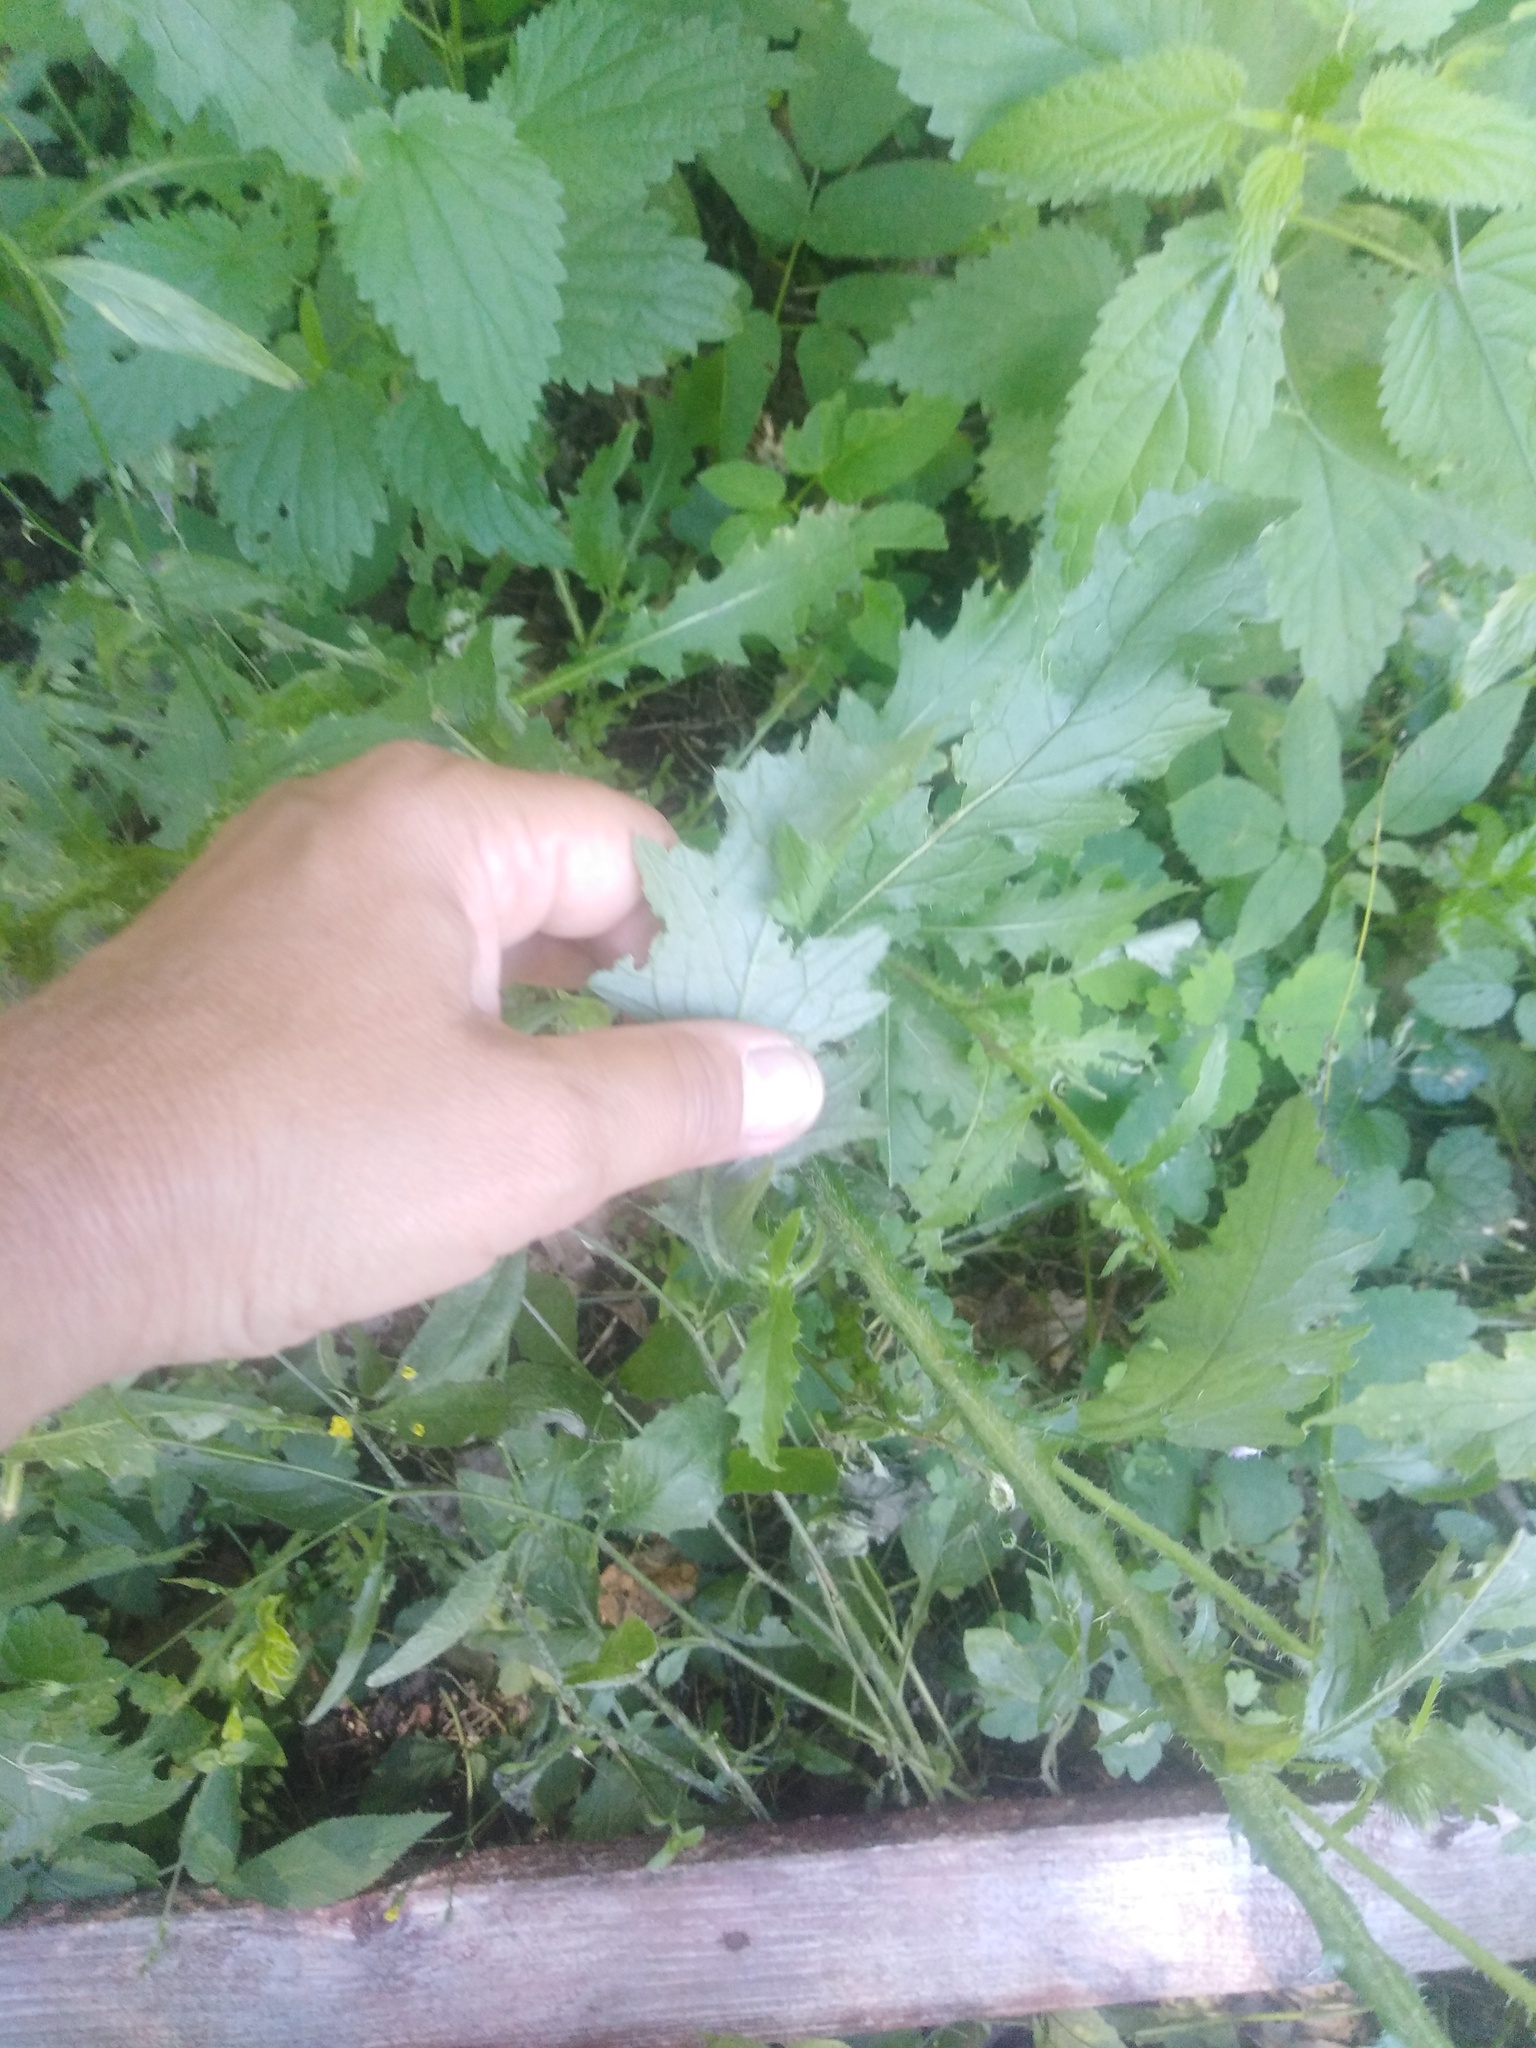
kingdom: Plantae
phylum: Tracheophyta
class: Magnoliopsida
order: Asterales
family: Asteraceae
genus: Carduus
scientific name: Carduus crispus
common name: Welted thistle
